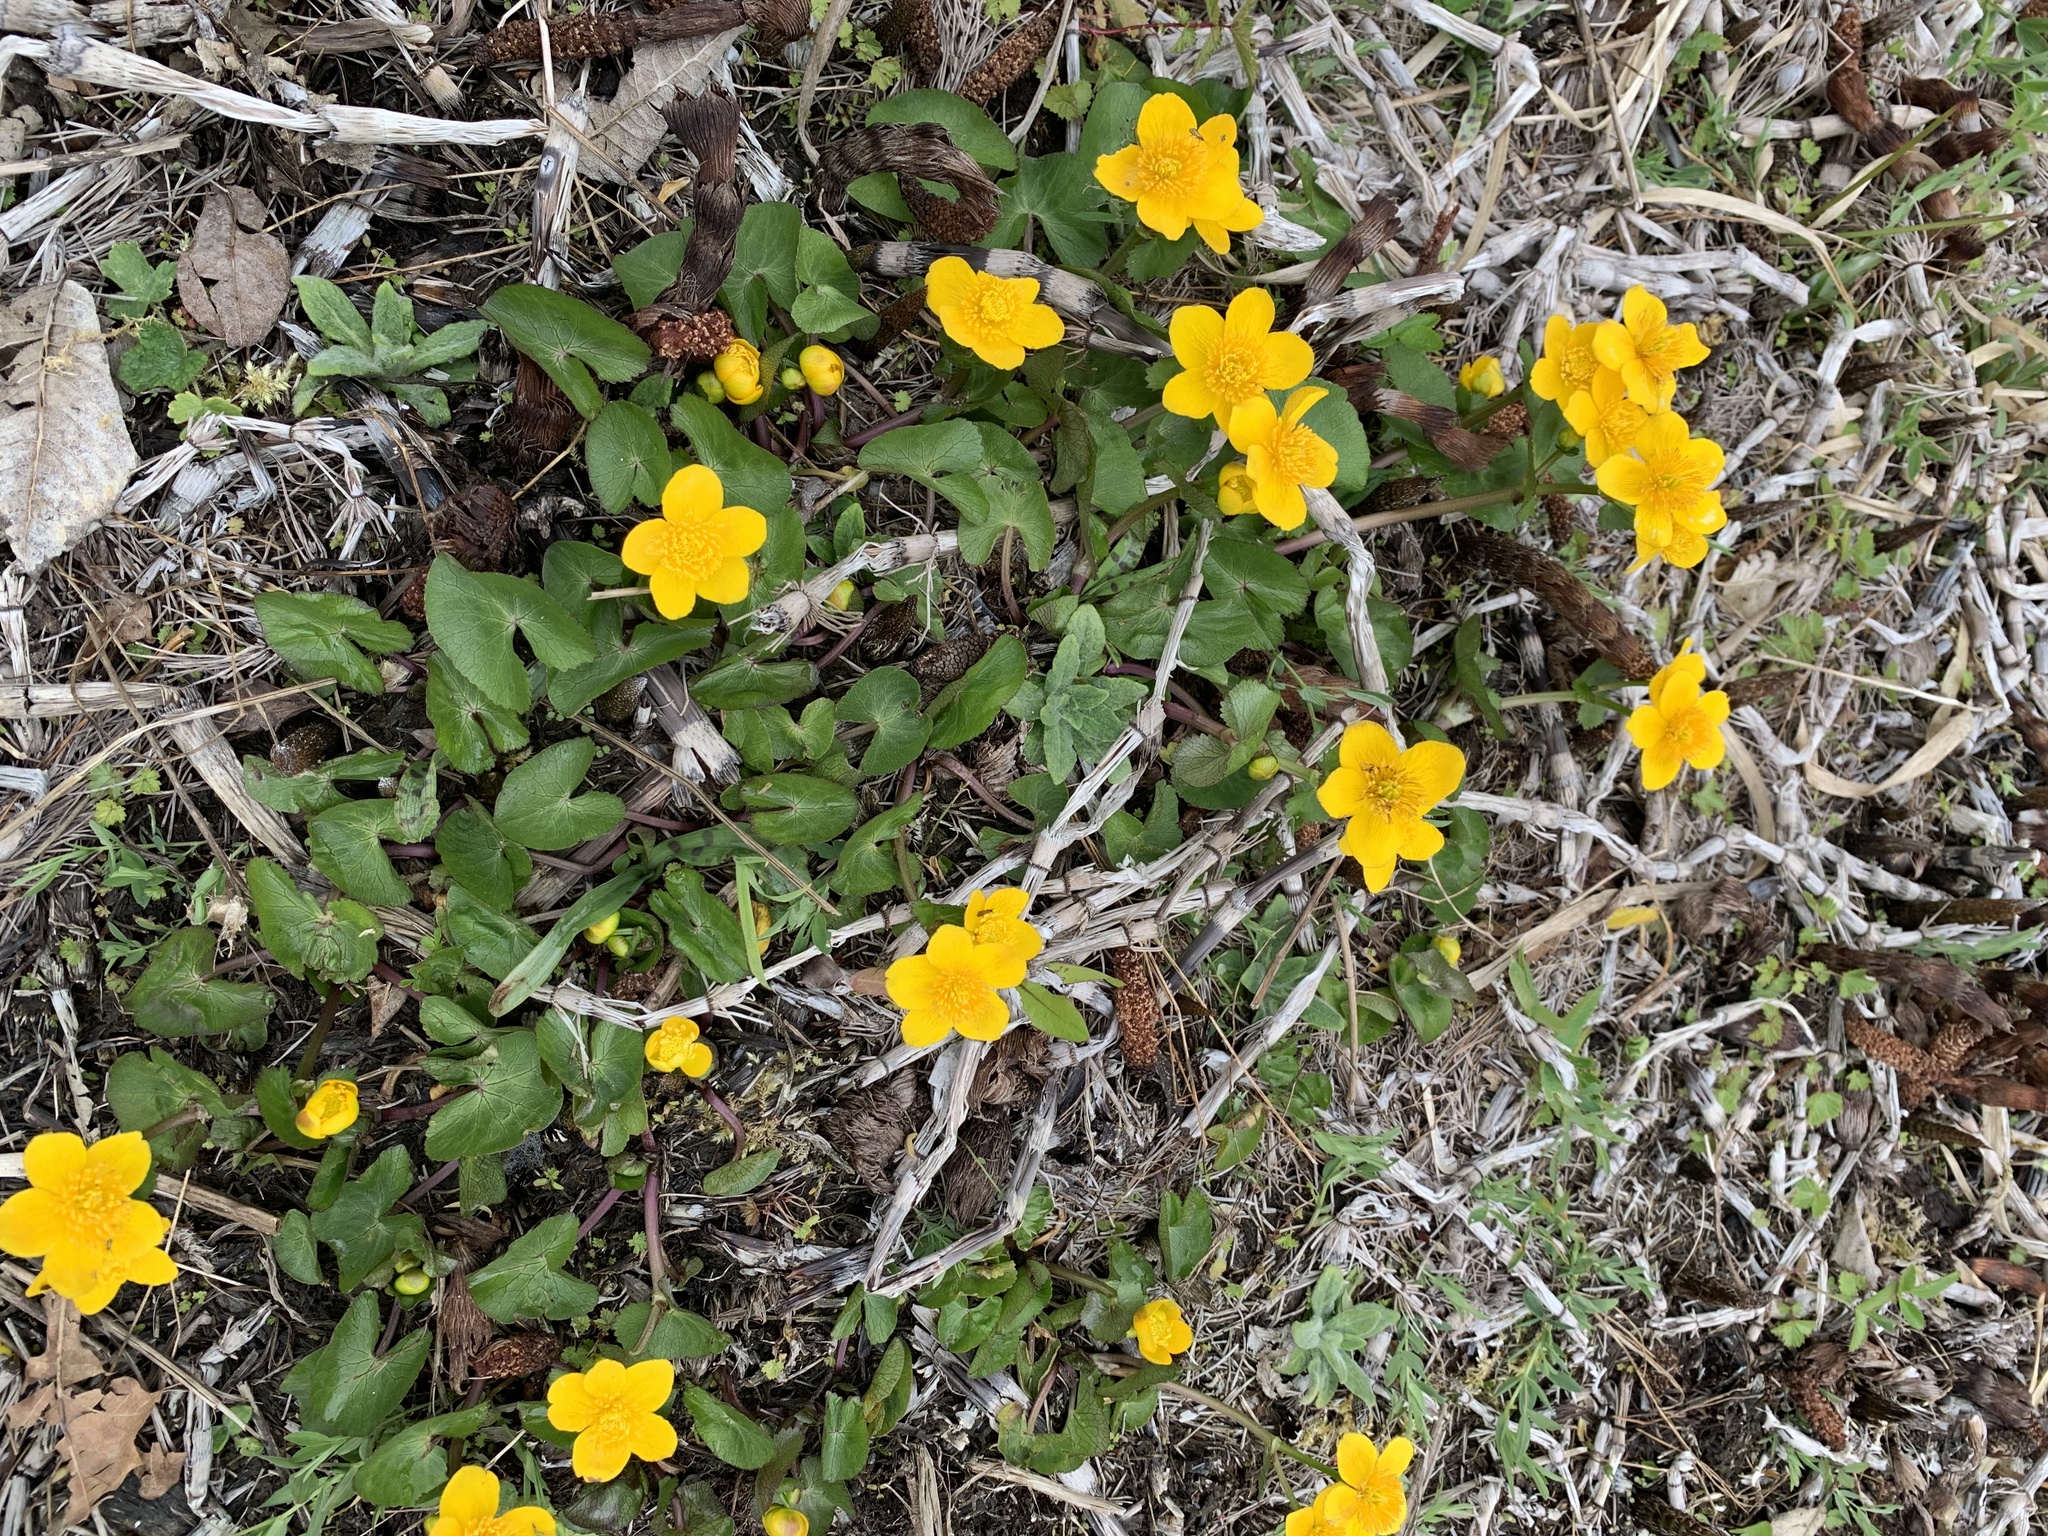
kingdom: Plantae
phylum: Tracheophyta
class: Magnoliopsida
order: Ranunculales
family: Ranunculaceae
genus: Caltha
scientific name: Caltha palustris
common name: Marsh marigold
